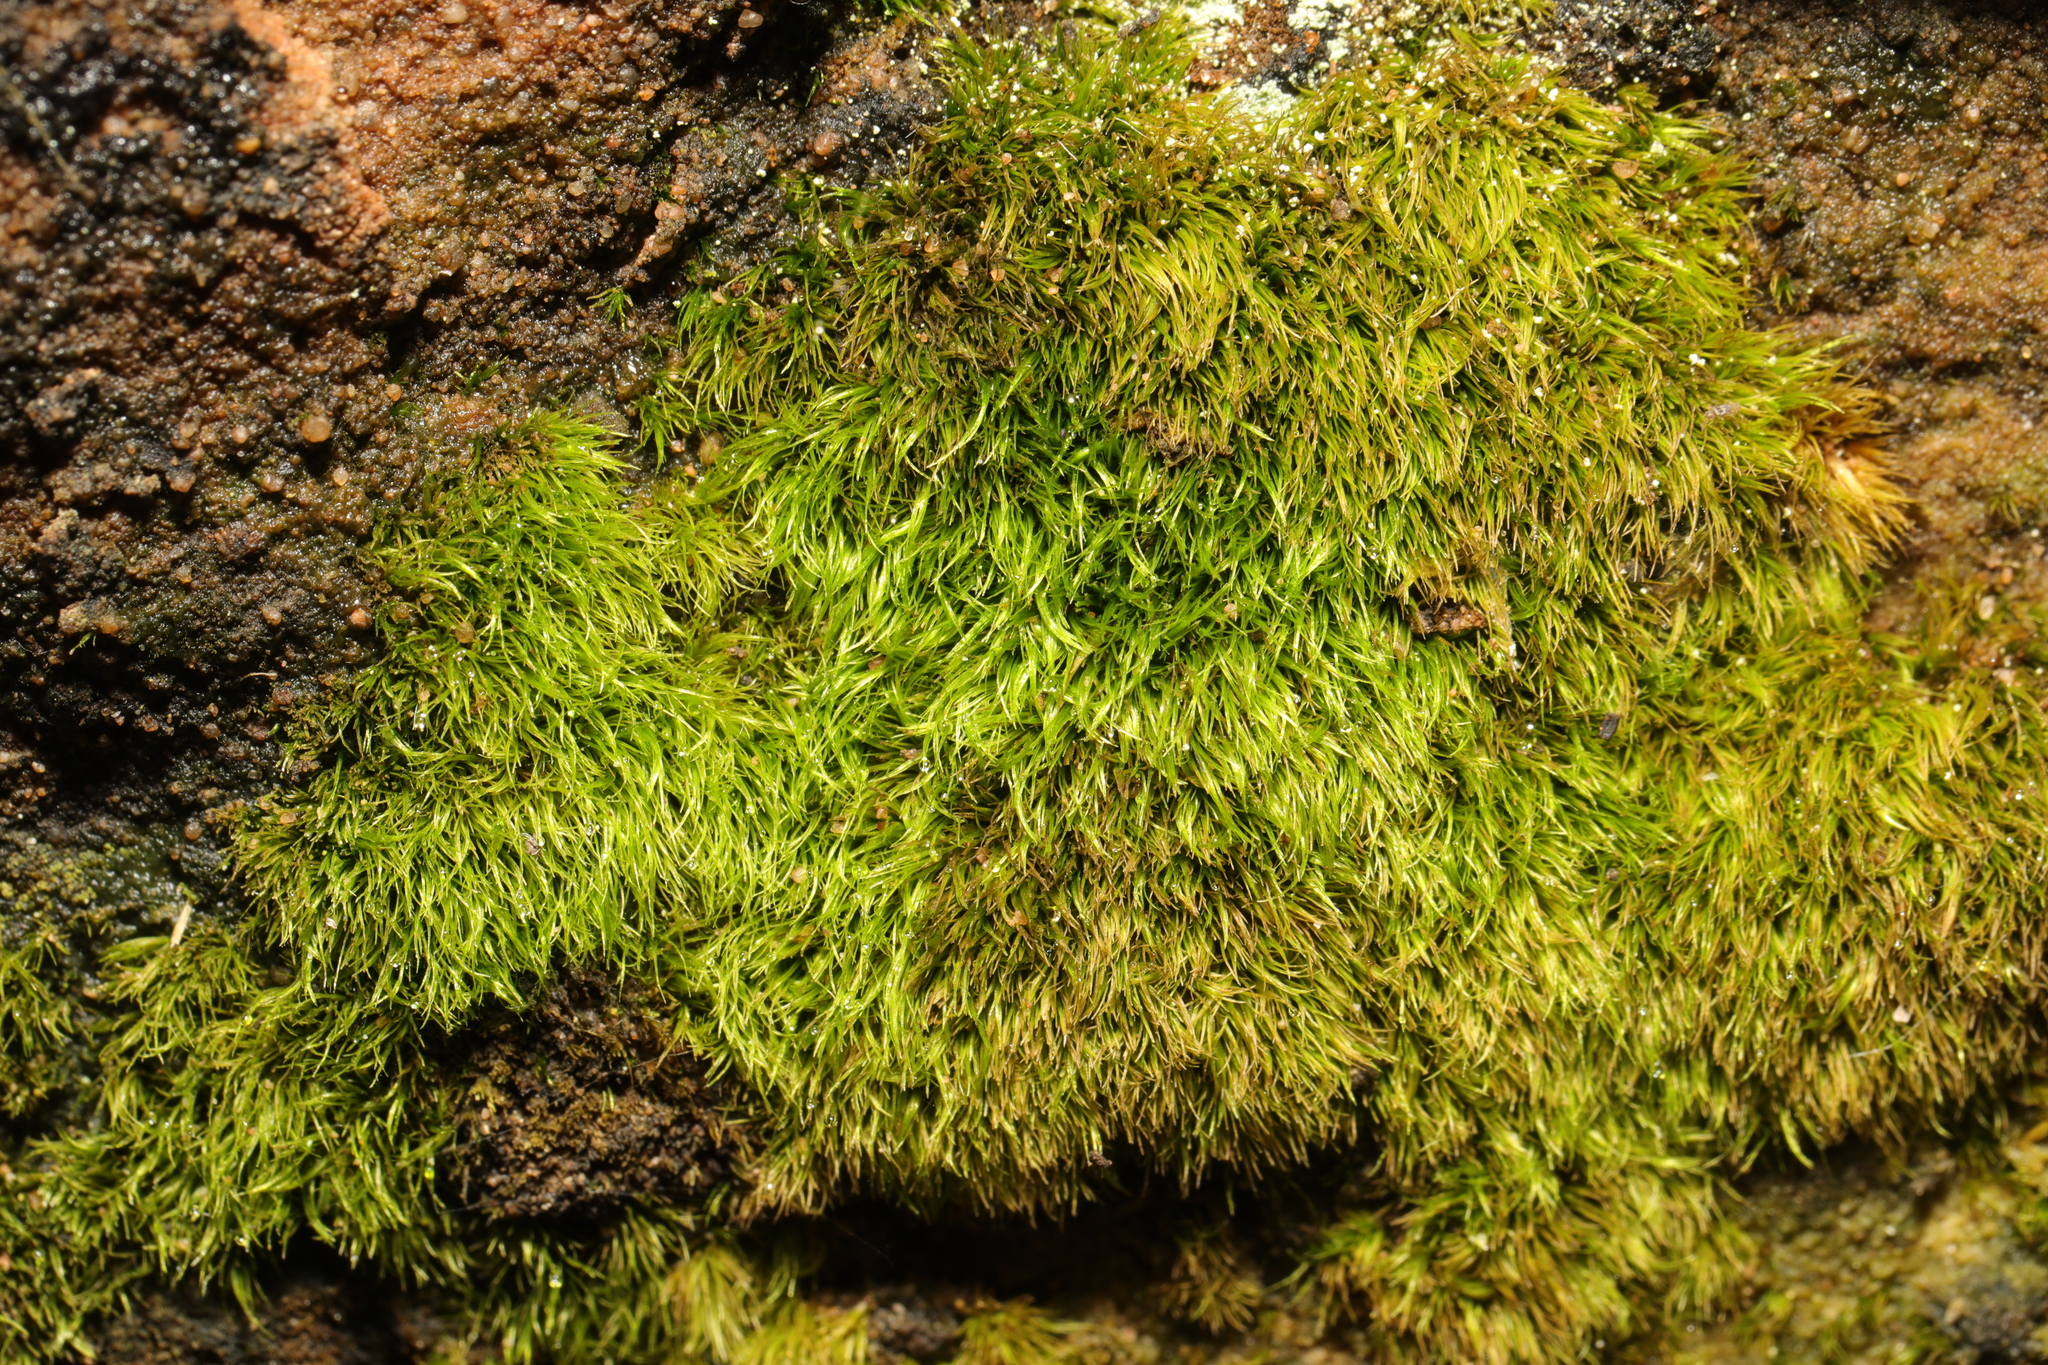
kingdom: Plantae
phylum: Bryophyta
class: Bryopsida
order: Dicranales
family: Dicranellaceae
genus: Dicranella
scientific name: Dicranella heteromalla
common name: Silky forklet moss
